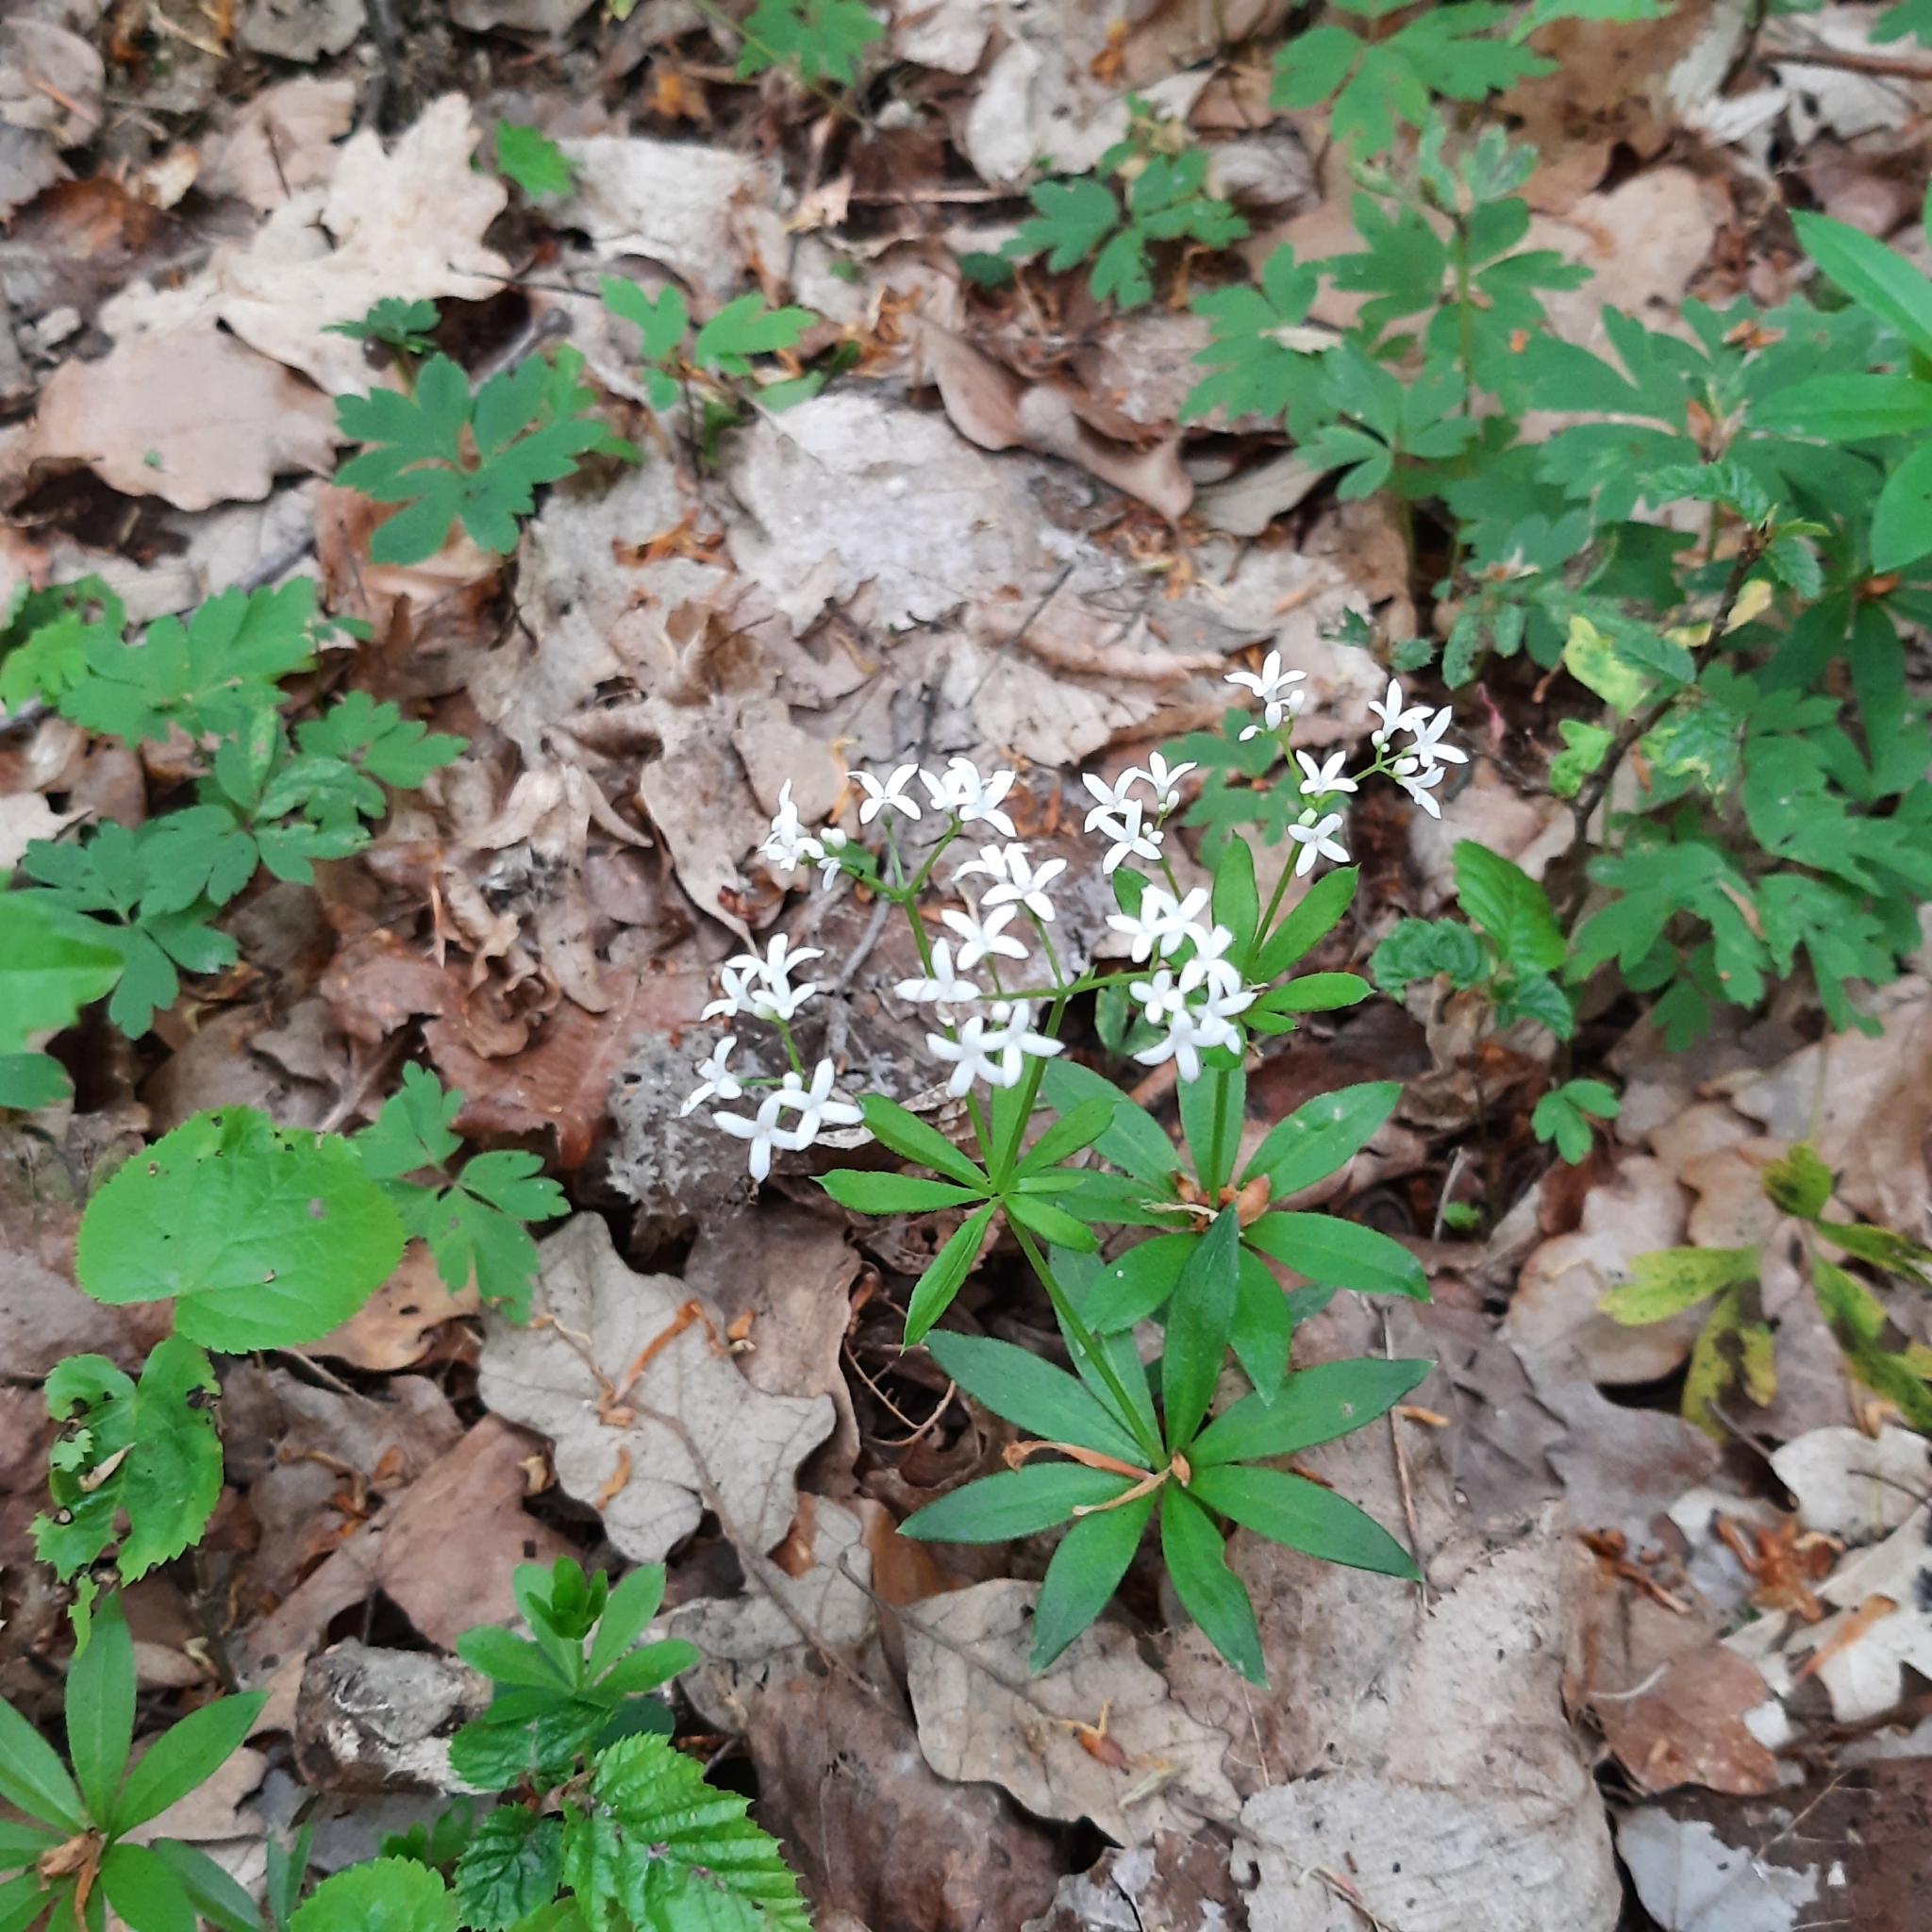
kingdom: Plantae
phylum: Tracheophyta
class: Magnoliopsida
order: Gentianales
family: Rubiaceae
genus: Galium
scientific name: Galium odoratum
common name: Sweet woodruff
